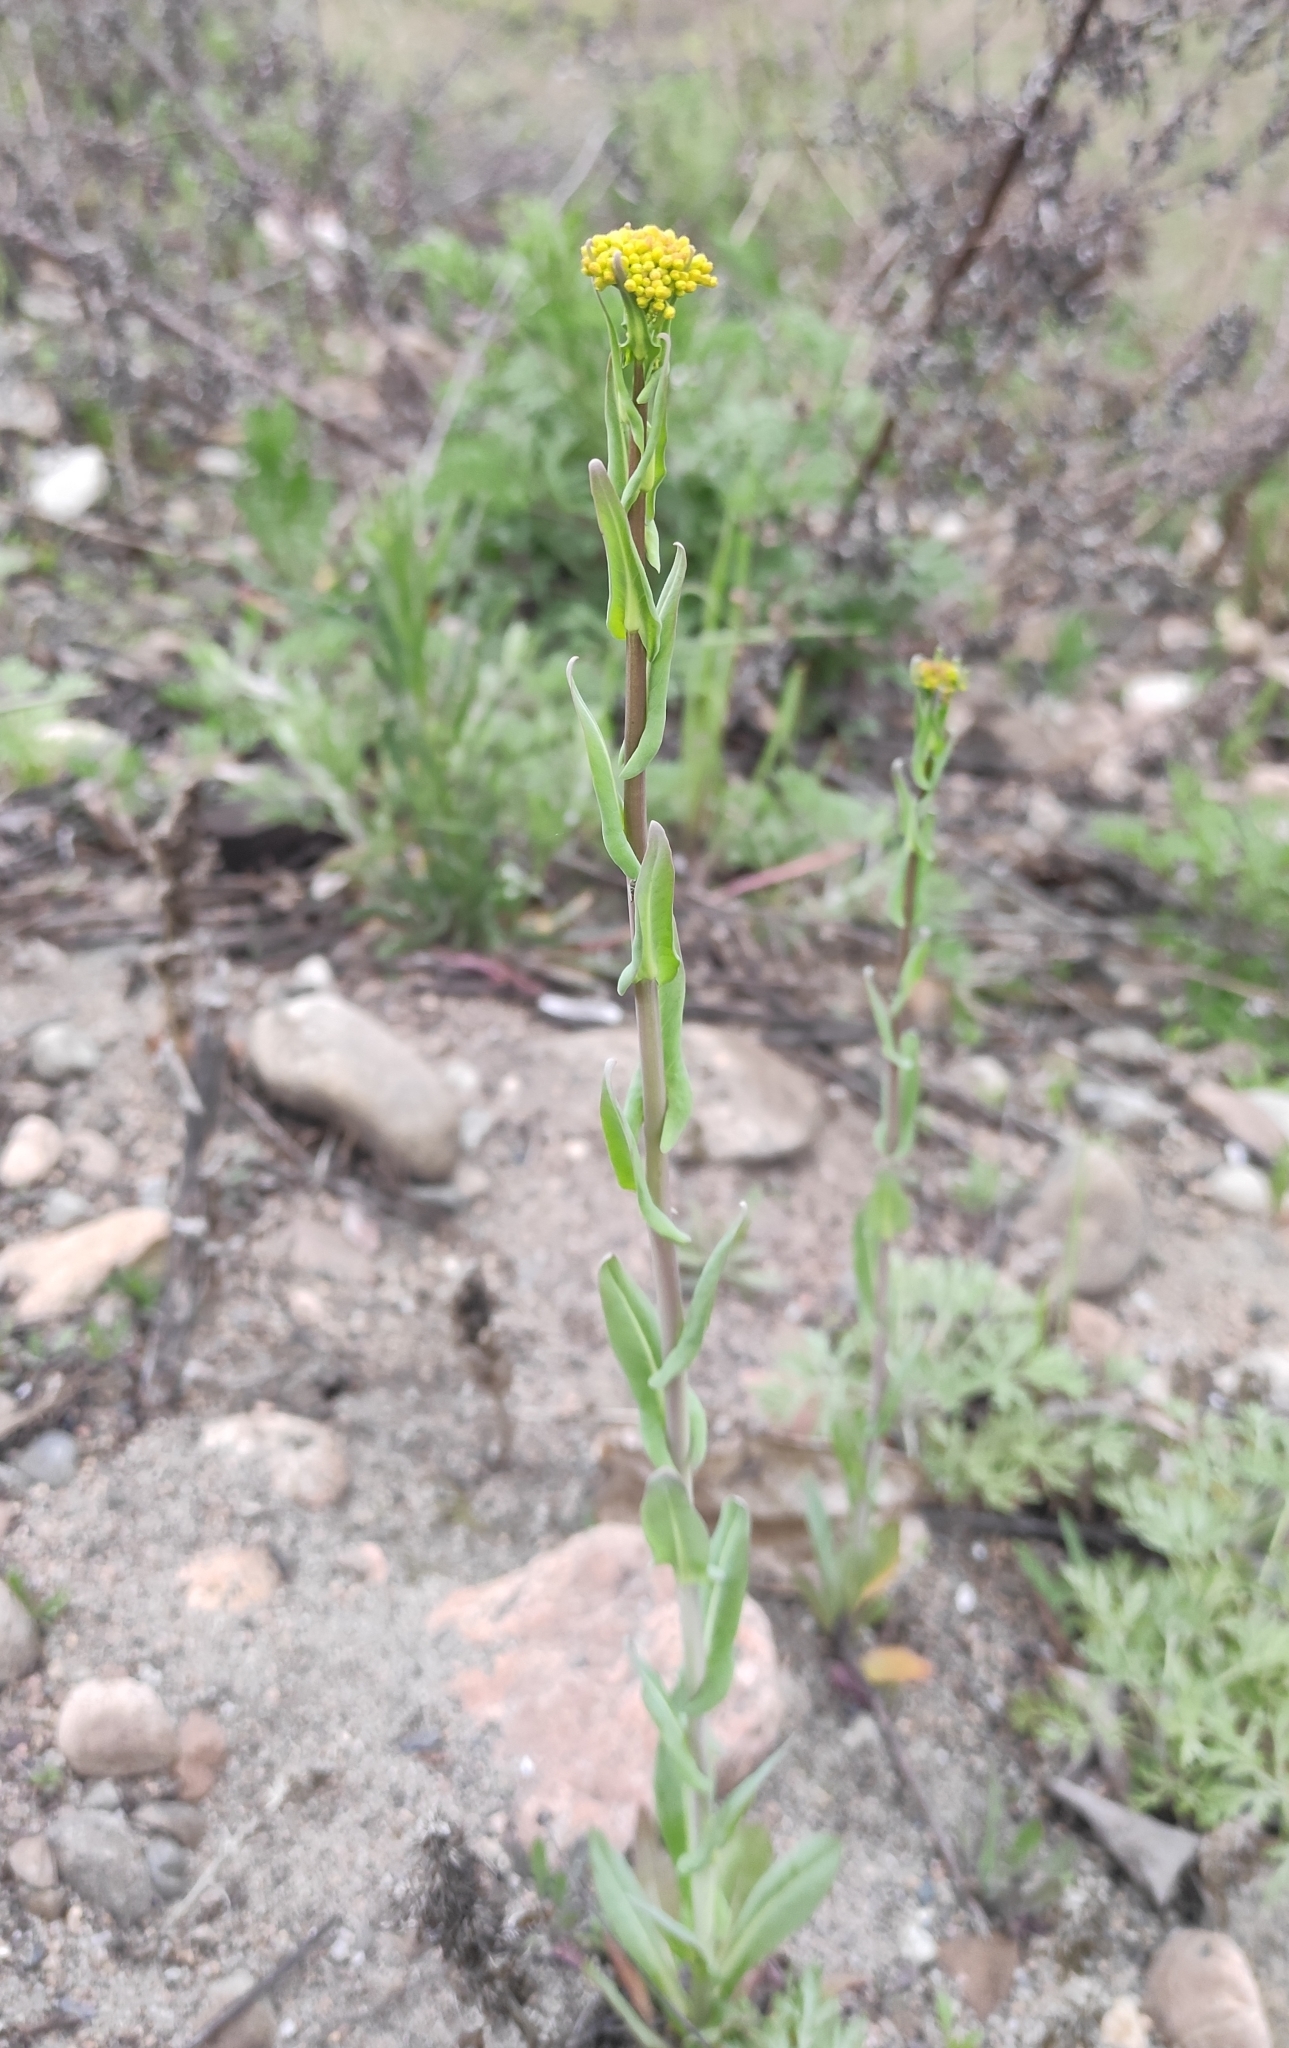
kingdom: Plantae
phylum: Tracheophyta
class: Magnoliopsida
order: Brassicales
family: Brassicaceae
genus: Isatis
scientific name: Isatis tinctoria
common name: Woad
